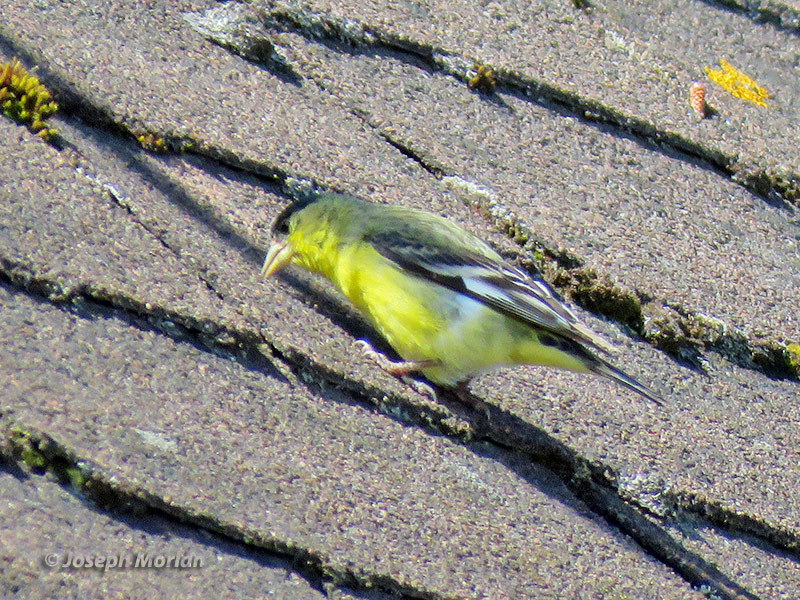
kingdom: Animalia
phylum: Chordata
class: Aves
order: Passeriformes
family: Fringillidae
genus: Spinus
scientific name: Spinus psaltria
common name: Lesser goldfinch
